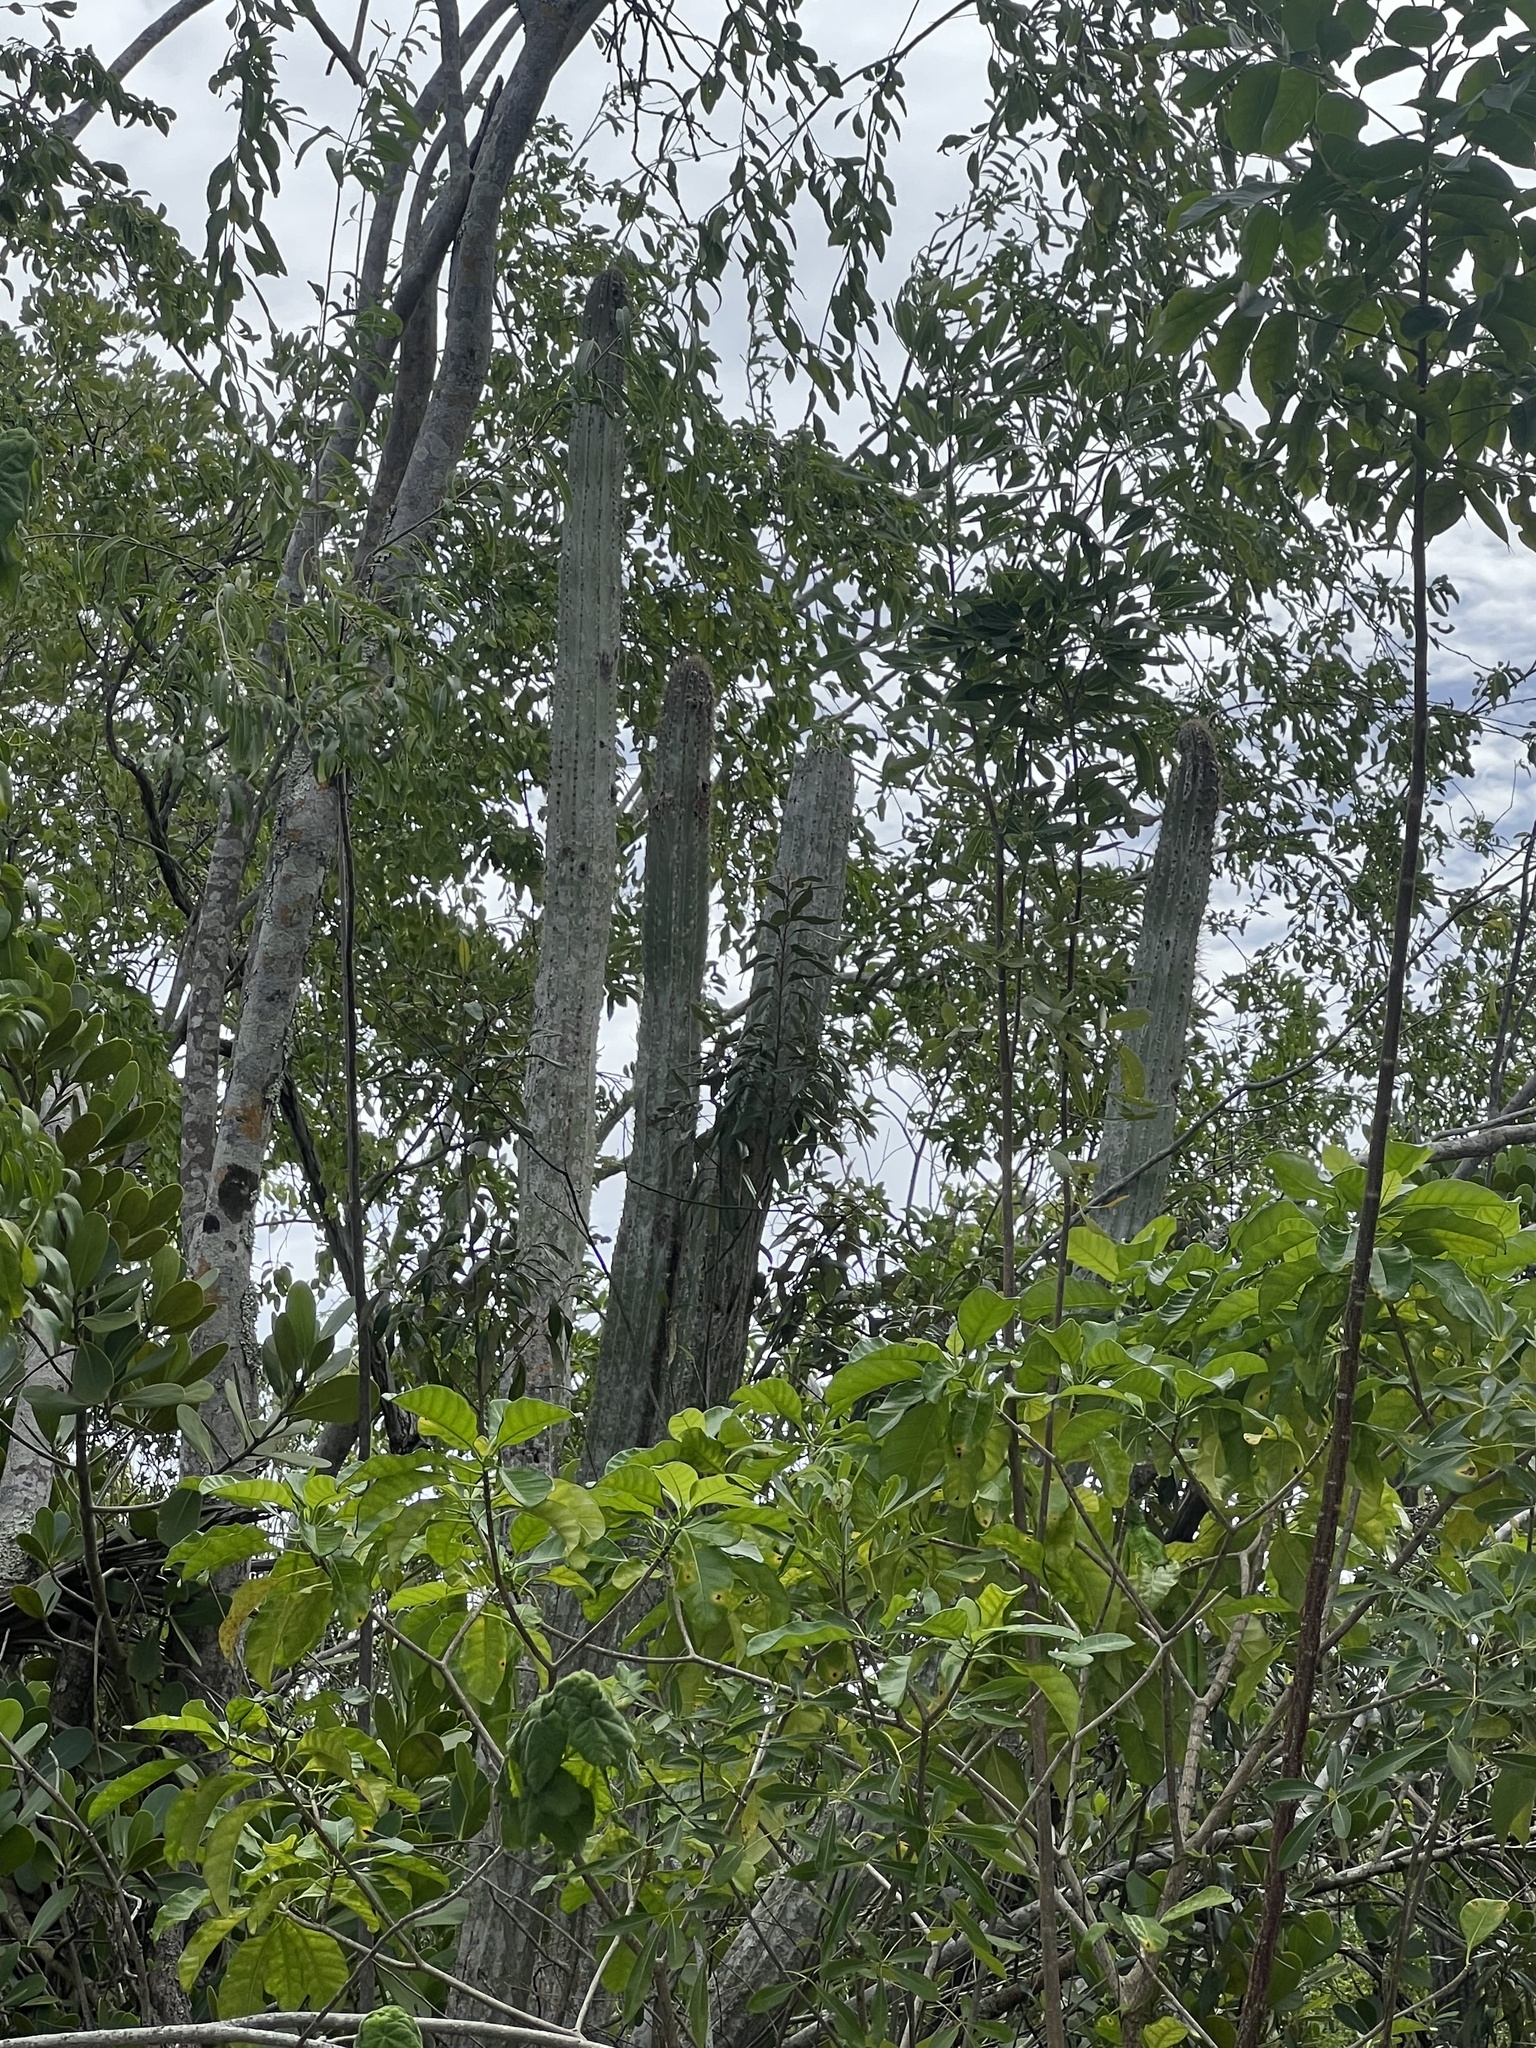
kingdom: Plantae
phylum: Tracheophyta
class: Magnoliopsida
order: Caryophyllales
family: Cactaceae
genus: Pilosocereus
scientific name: Pilosocereus jamaicensis
